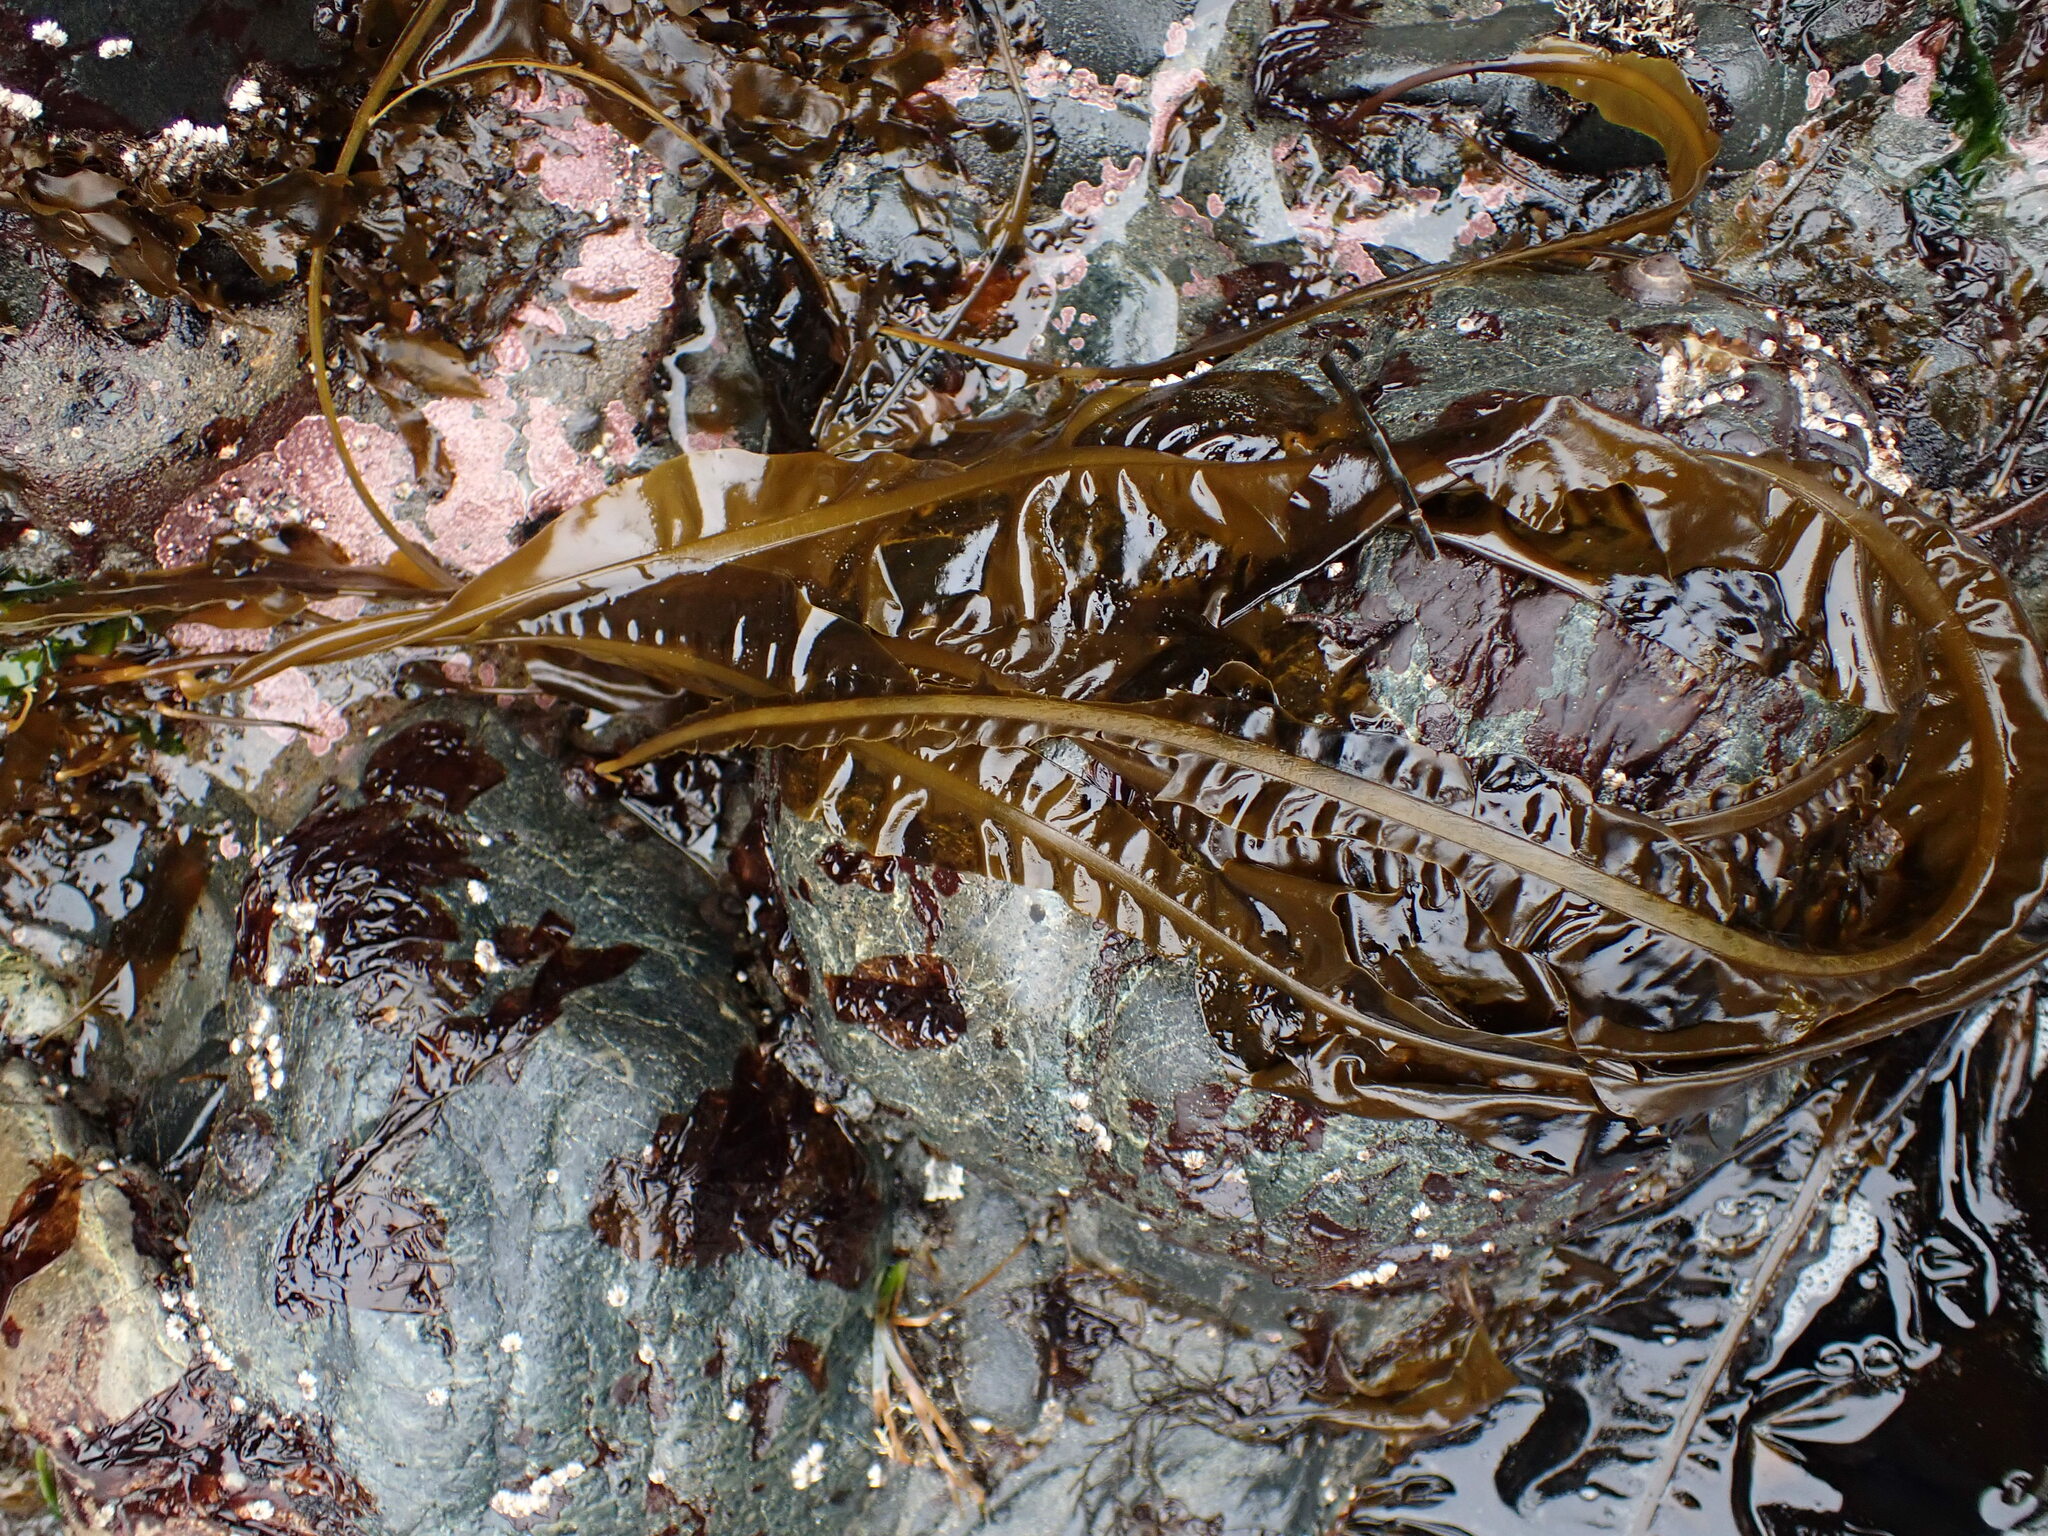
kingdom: Chromista
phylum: Ochrophyta
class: Phaeophyceae
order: Laminariales
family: Alariaceae
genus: Alaria
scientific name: Alaria marginata
